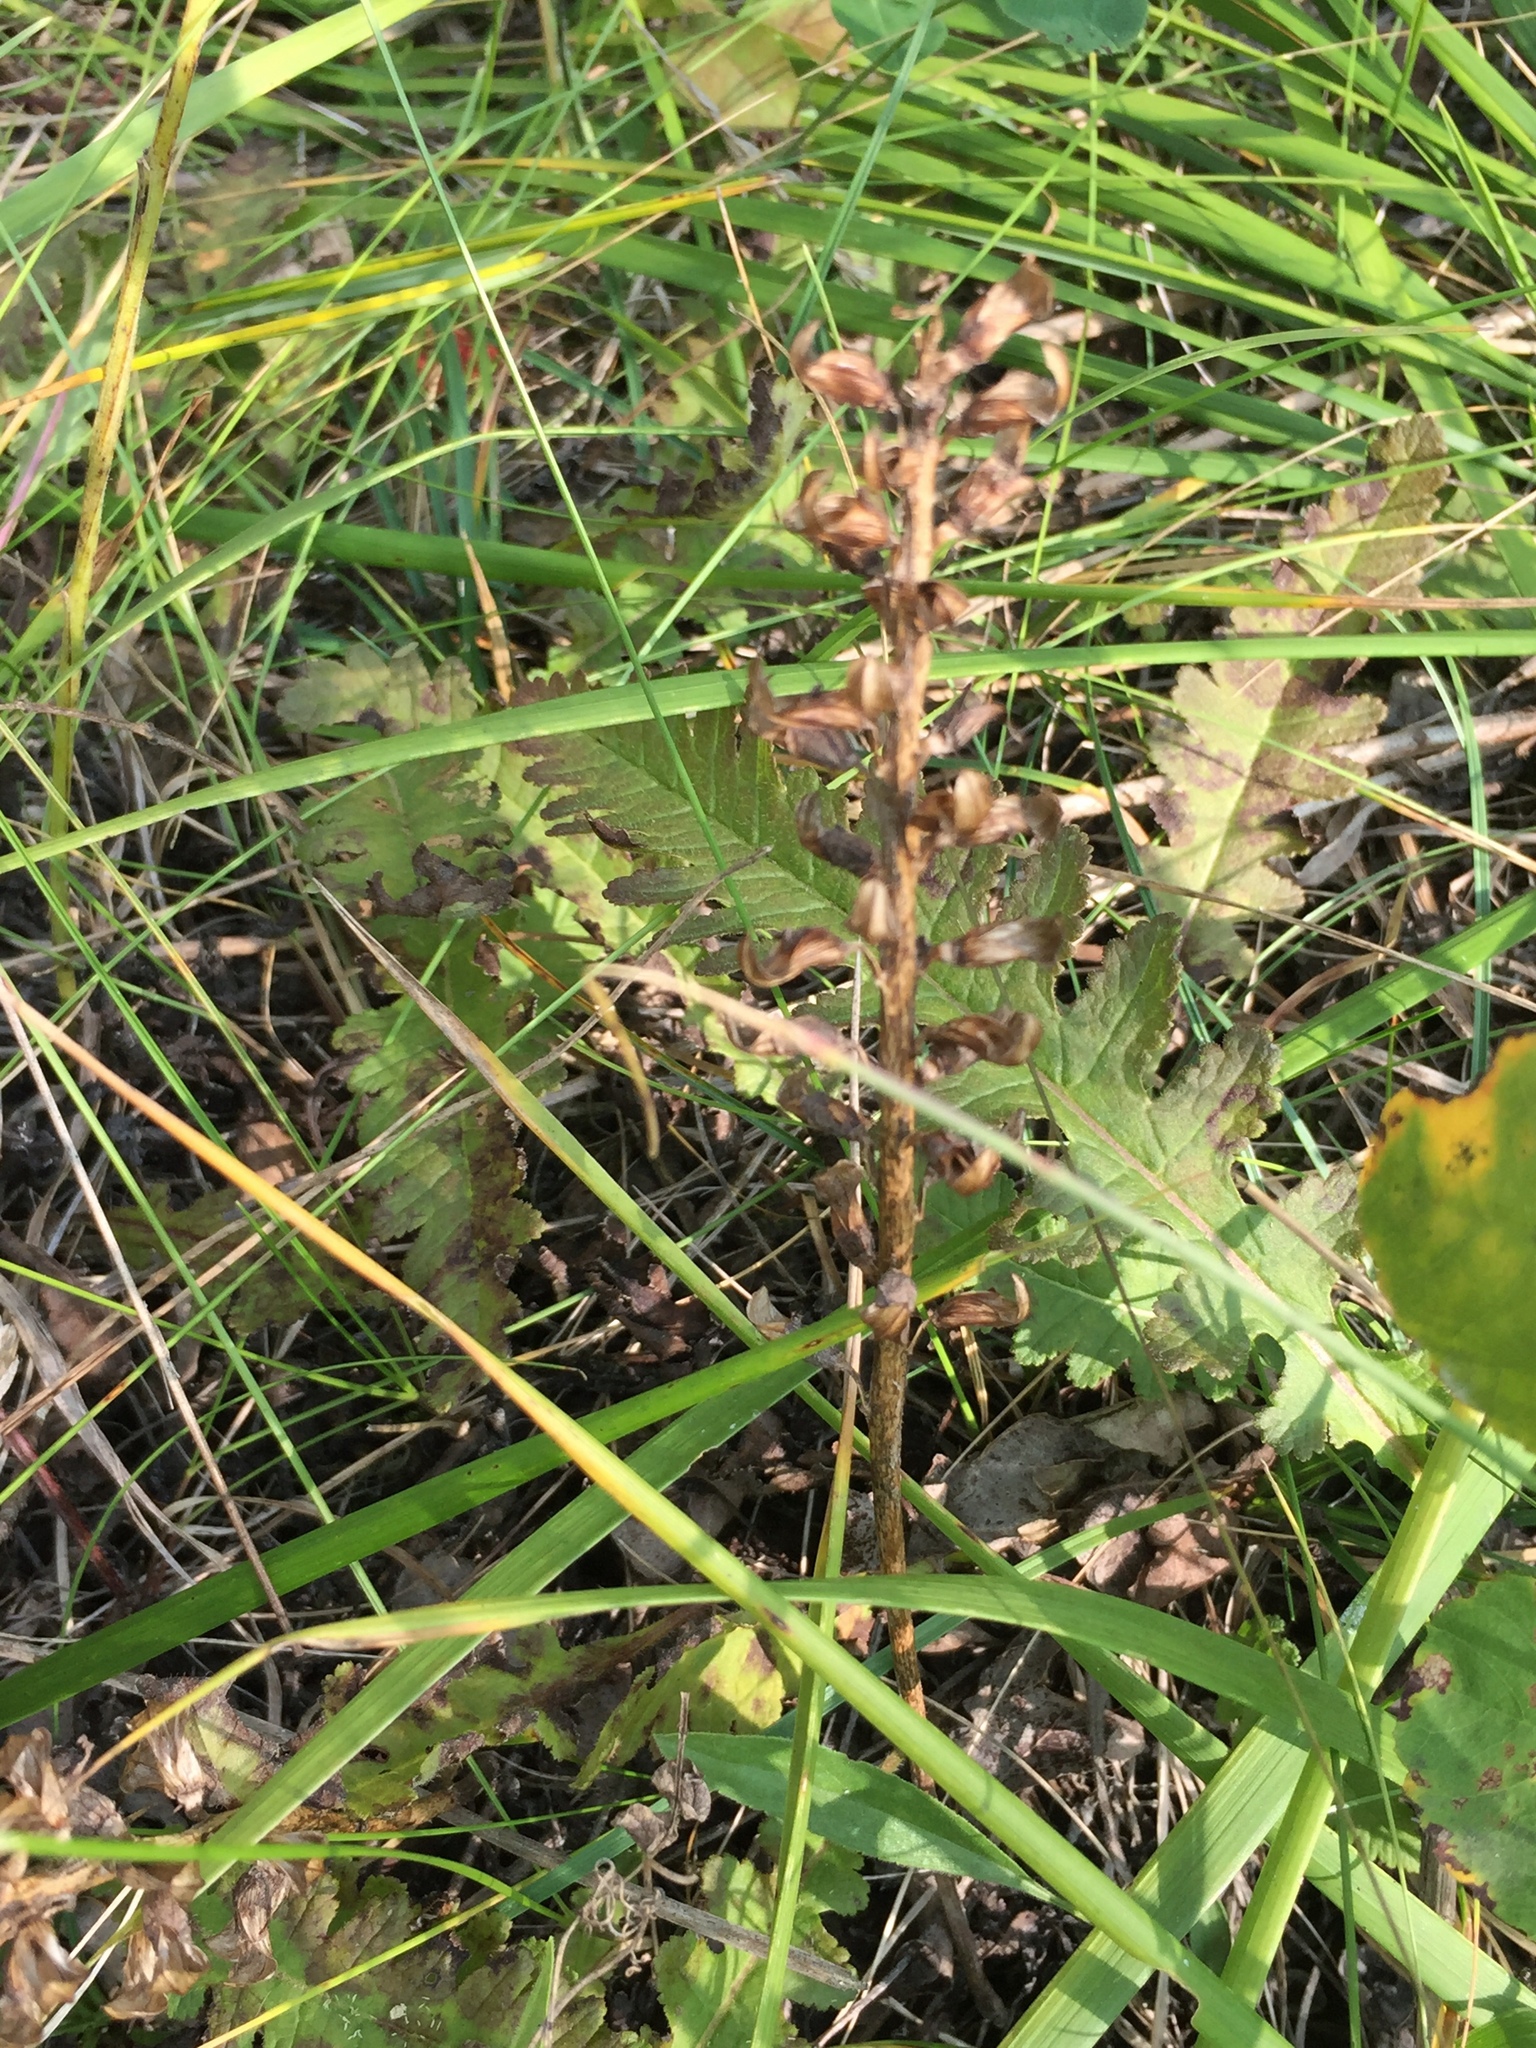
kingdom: Plantae
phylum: Tracheophyta
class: Magnoliopsida
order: Lamiales
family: Orobanchaceae
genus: Pedicularis
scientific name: Pedicularis canadensis
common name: Early lousewort
